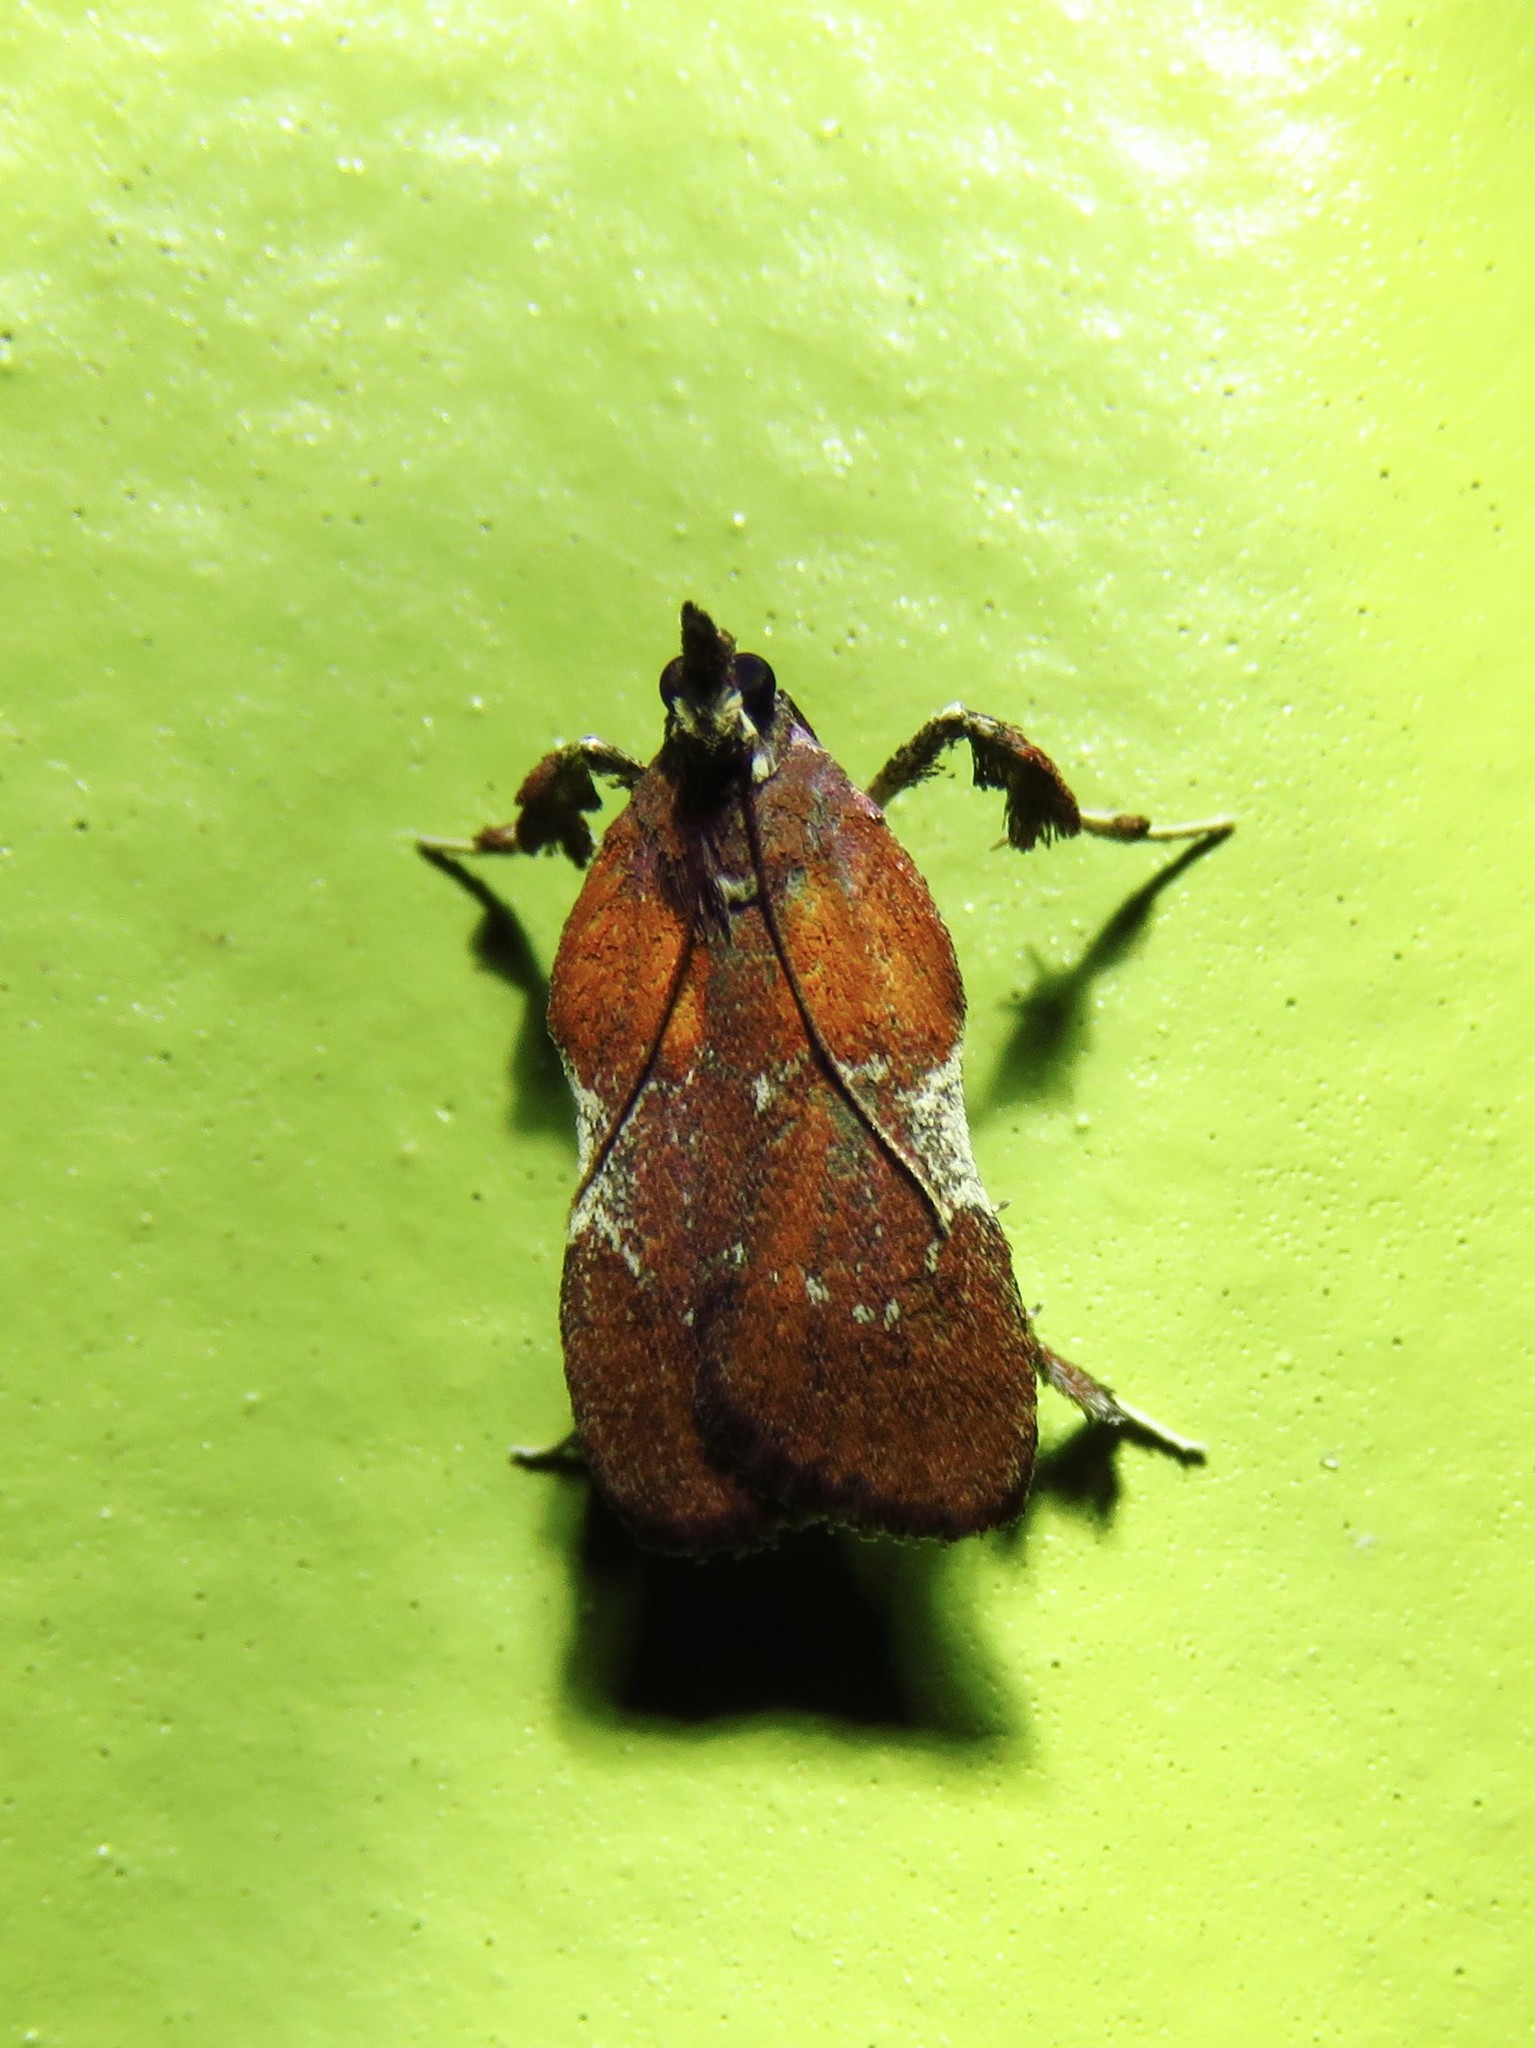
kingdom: Animalia
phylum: Arthropoda
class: Insecta
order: Lepidoptera
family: Pyralidae
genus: Galasa
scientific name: Galasa nigrinodis
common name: Boxwood leaftier moth
